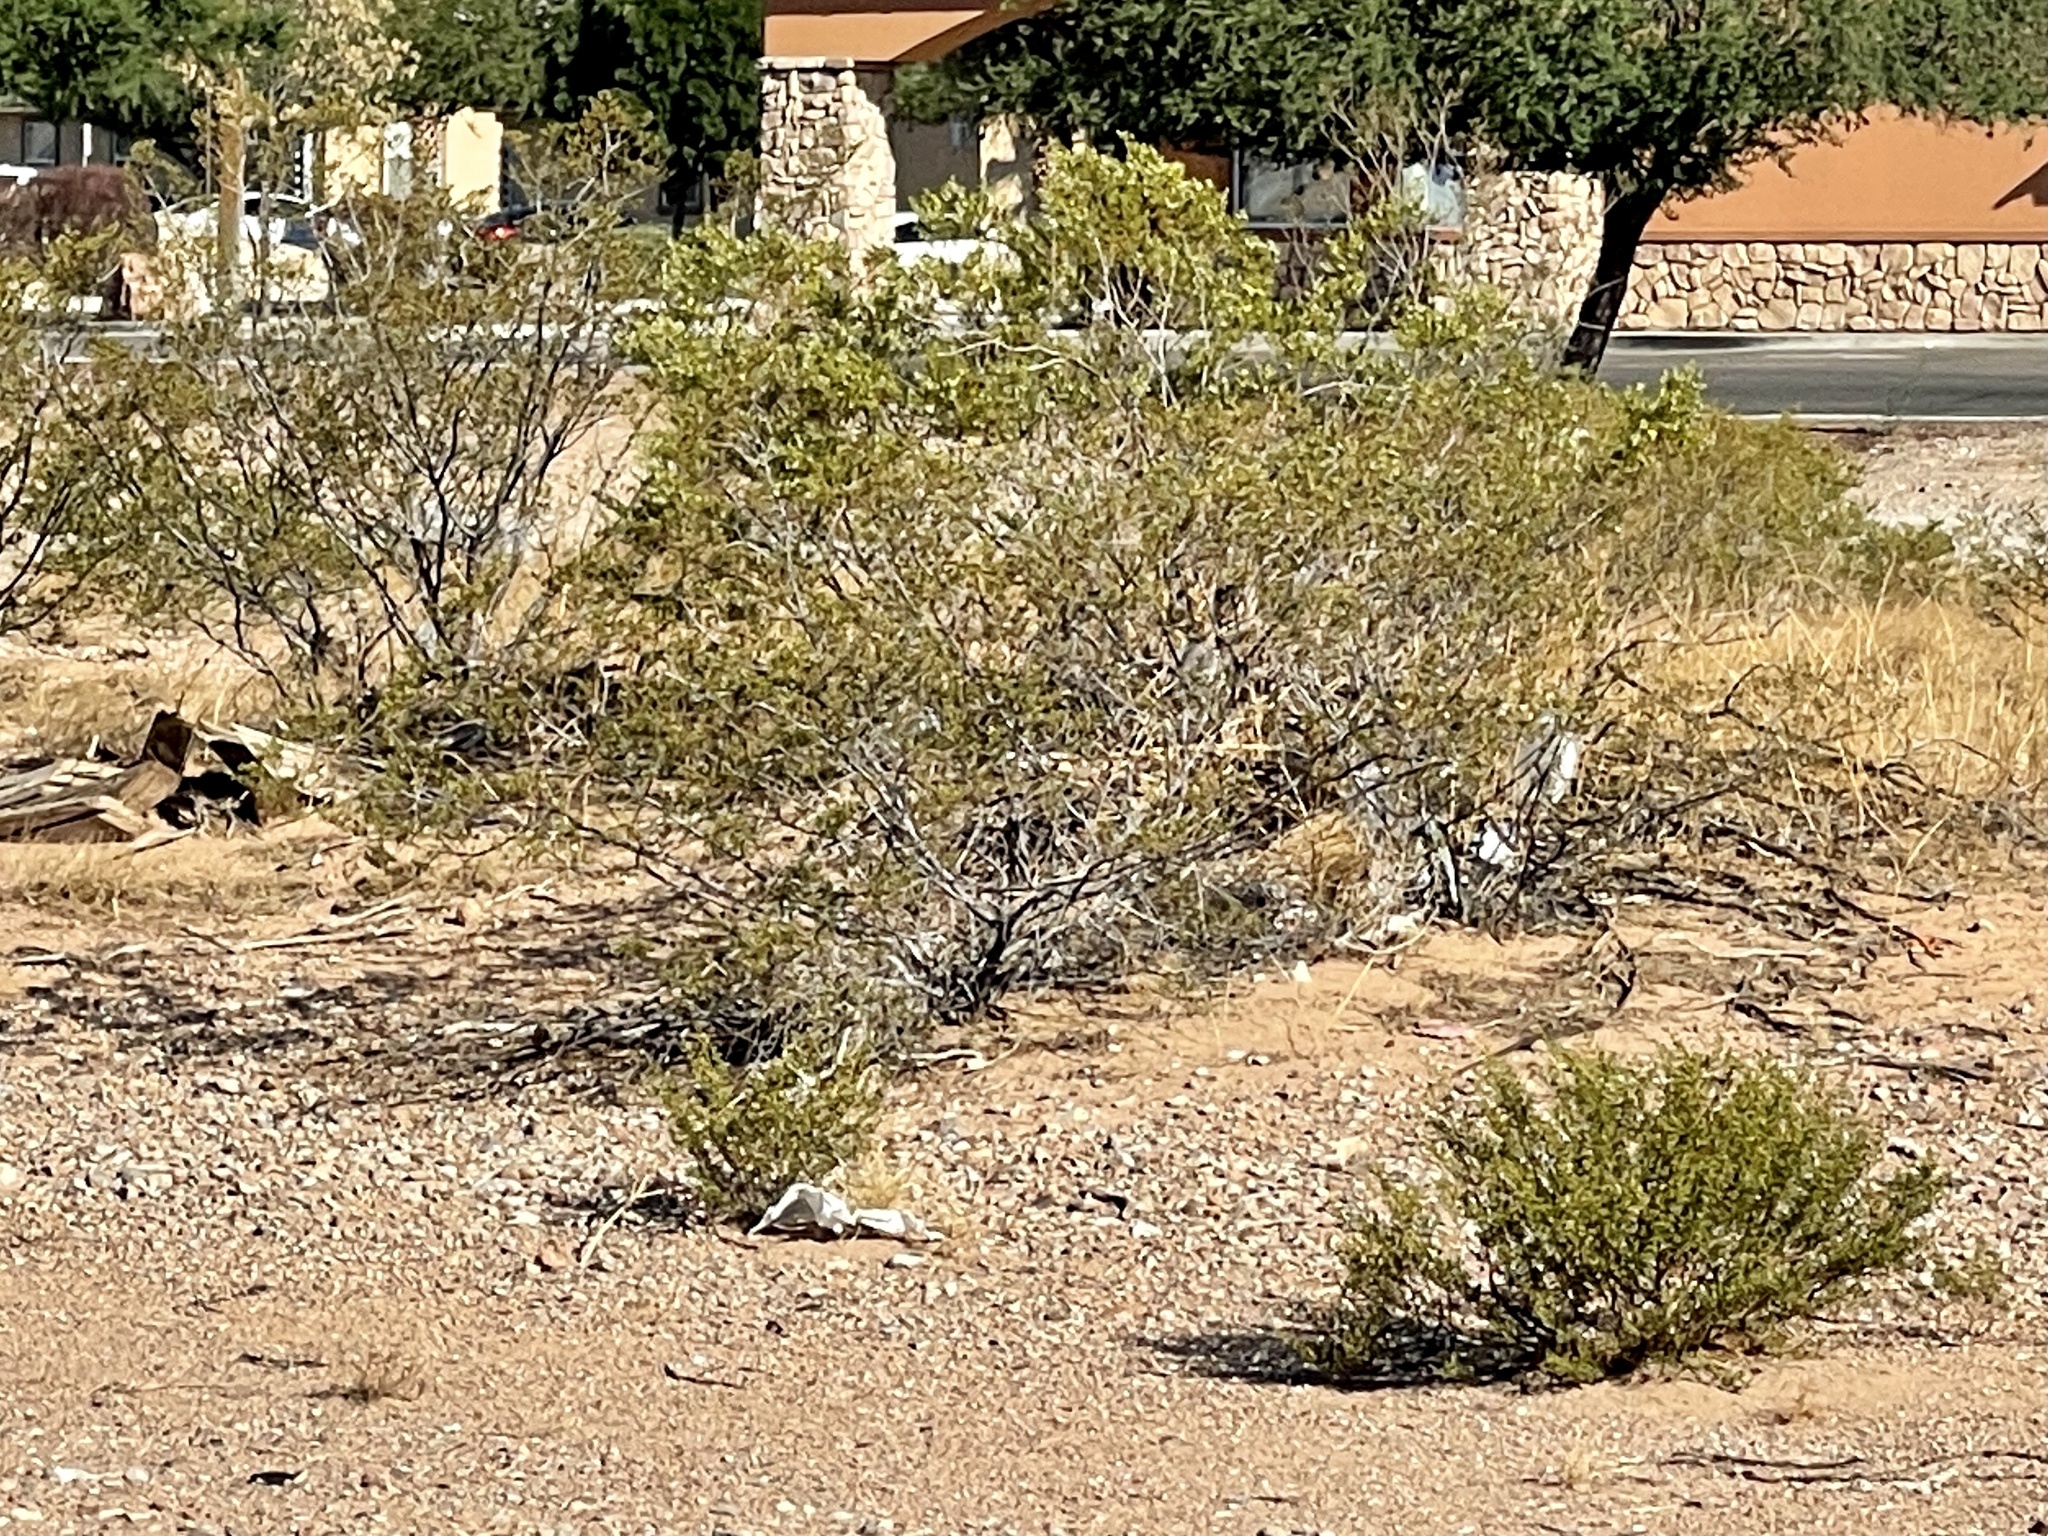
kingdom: Plantae
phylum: Tracheophyta
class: Magnoliopsida
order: Zygophyllales
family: Zygophyllaceae
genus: Larrea
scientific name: Larrea tridentata
